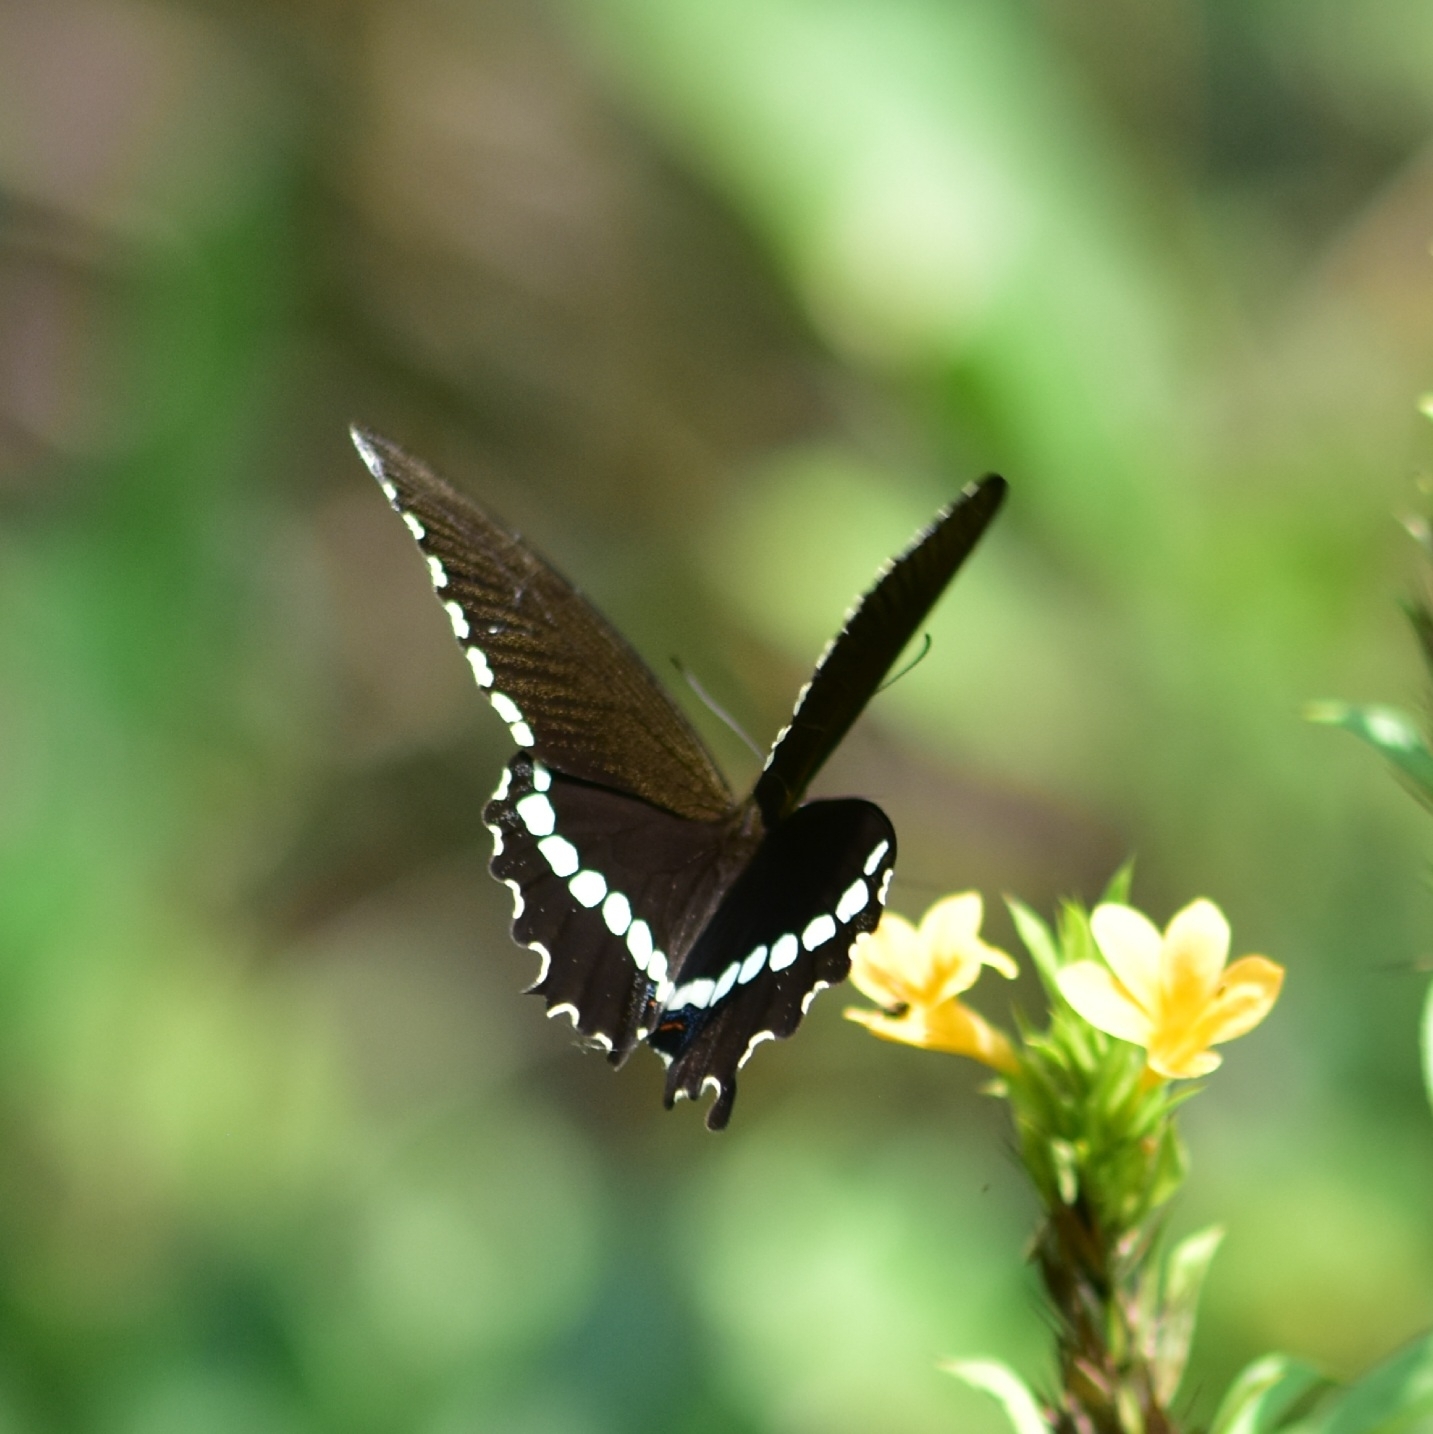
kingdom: Animalia
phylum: Arthropoda
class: Insecta
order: Lepidoptera
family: Papilionidae
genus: Papilio
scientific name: Papilio polytes
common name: Common mormon
